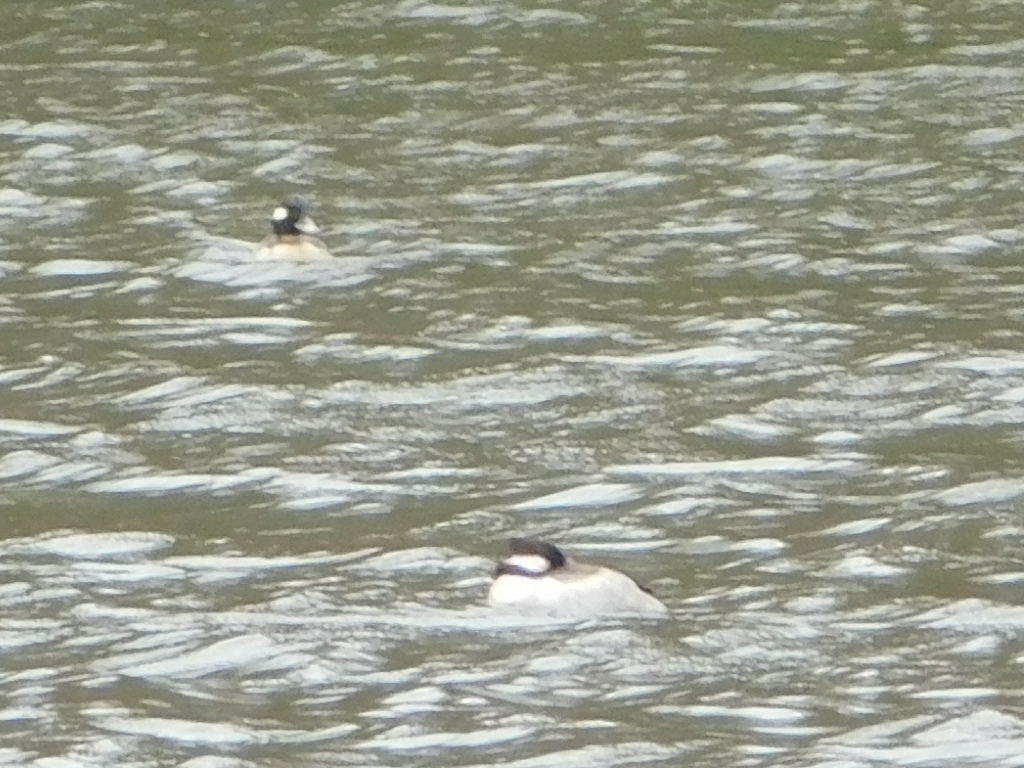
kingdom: Animalia
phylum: Chordata
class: Aves
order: Anseriformes
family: Anatidae
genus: Bucephala
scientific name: Bucephala albeola
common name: Bufflehead
